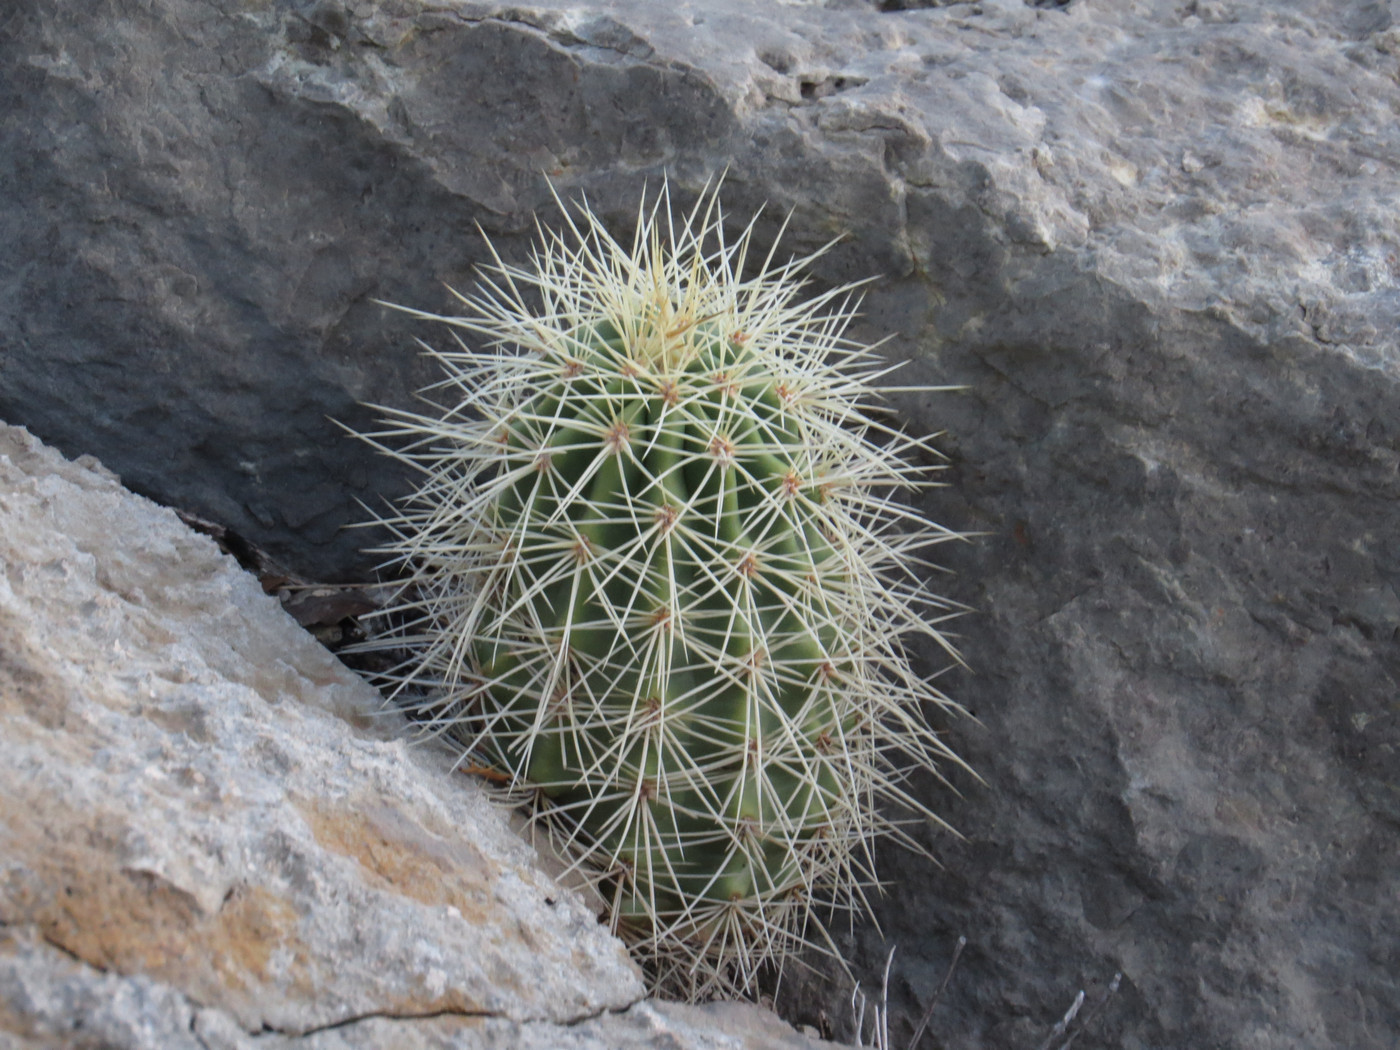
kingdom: Plantae
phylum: Tracheophyta
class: Magnoliopsida
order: Caryophyllales
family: Cactaceae
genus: Echinocereus
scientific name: Echinocereus coccineus
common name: Scarlet hedgehog cactus
